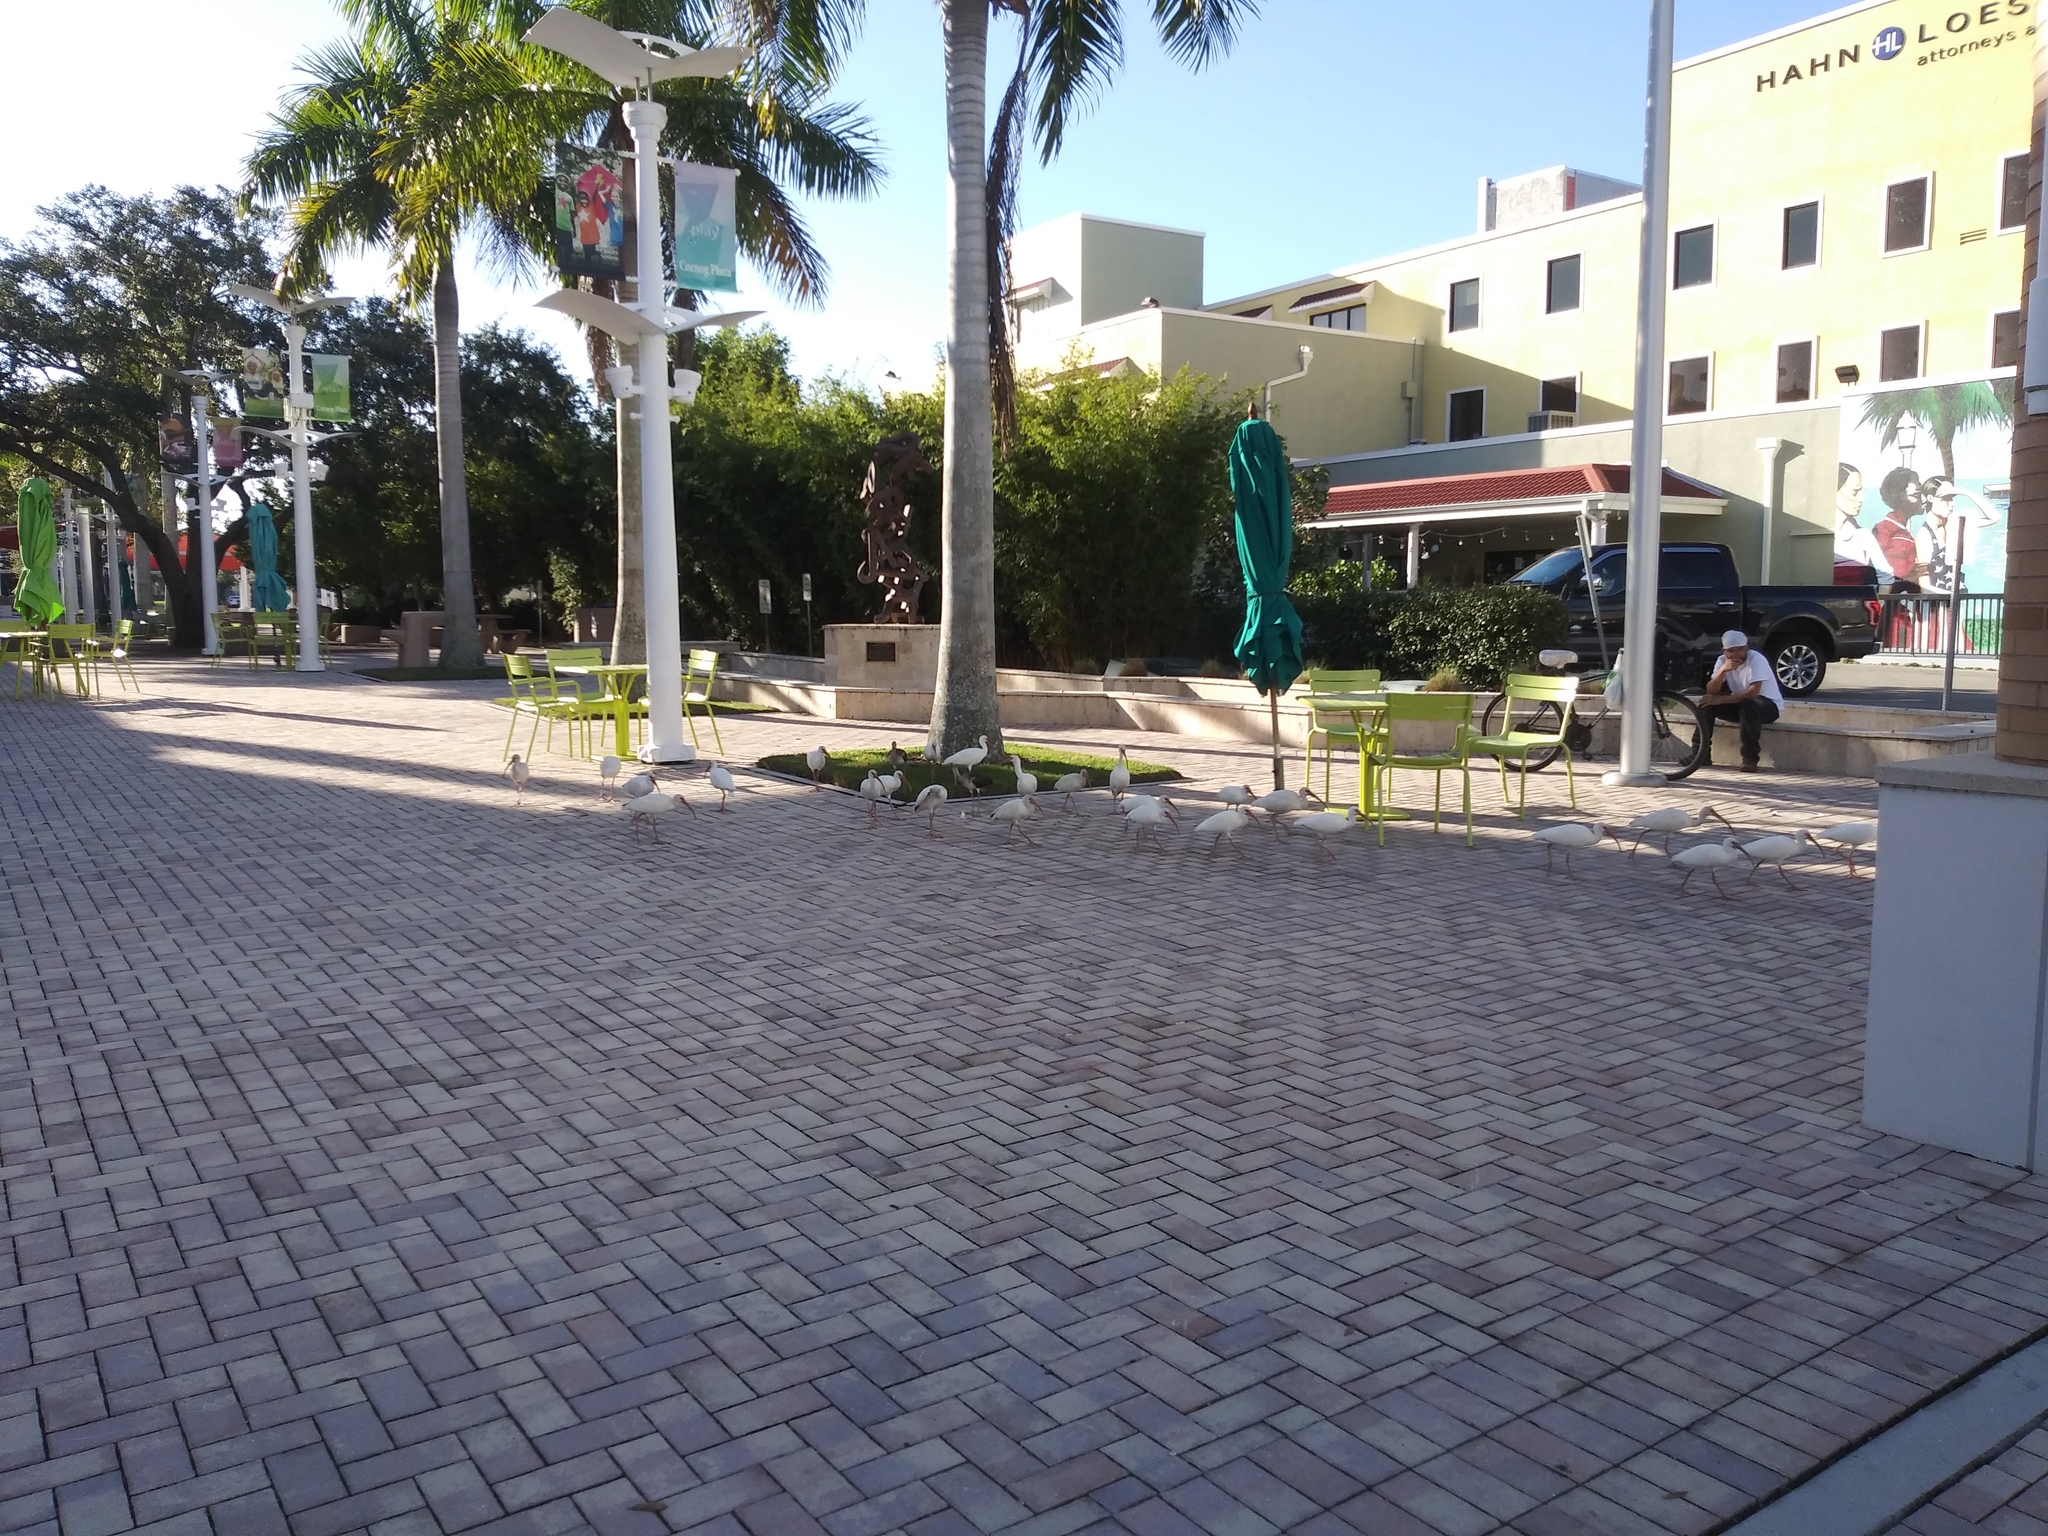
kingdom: Animalia
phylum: Chordata
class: Aves
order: Pelecaniformes
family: Threskiornithidae
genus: Eudocimus
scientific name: Eudocimus albus
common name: White ibis
